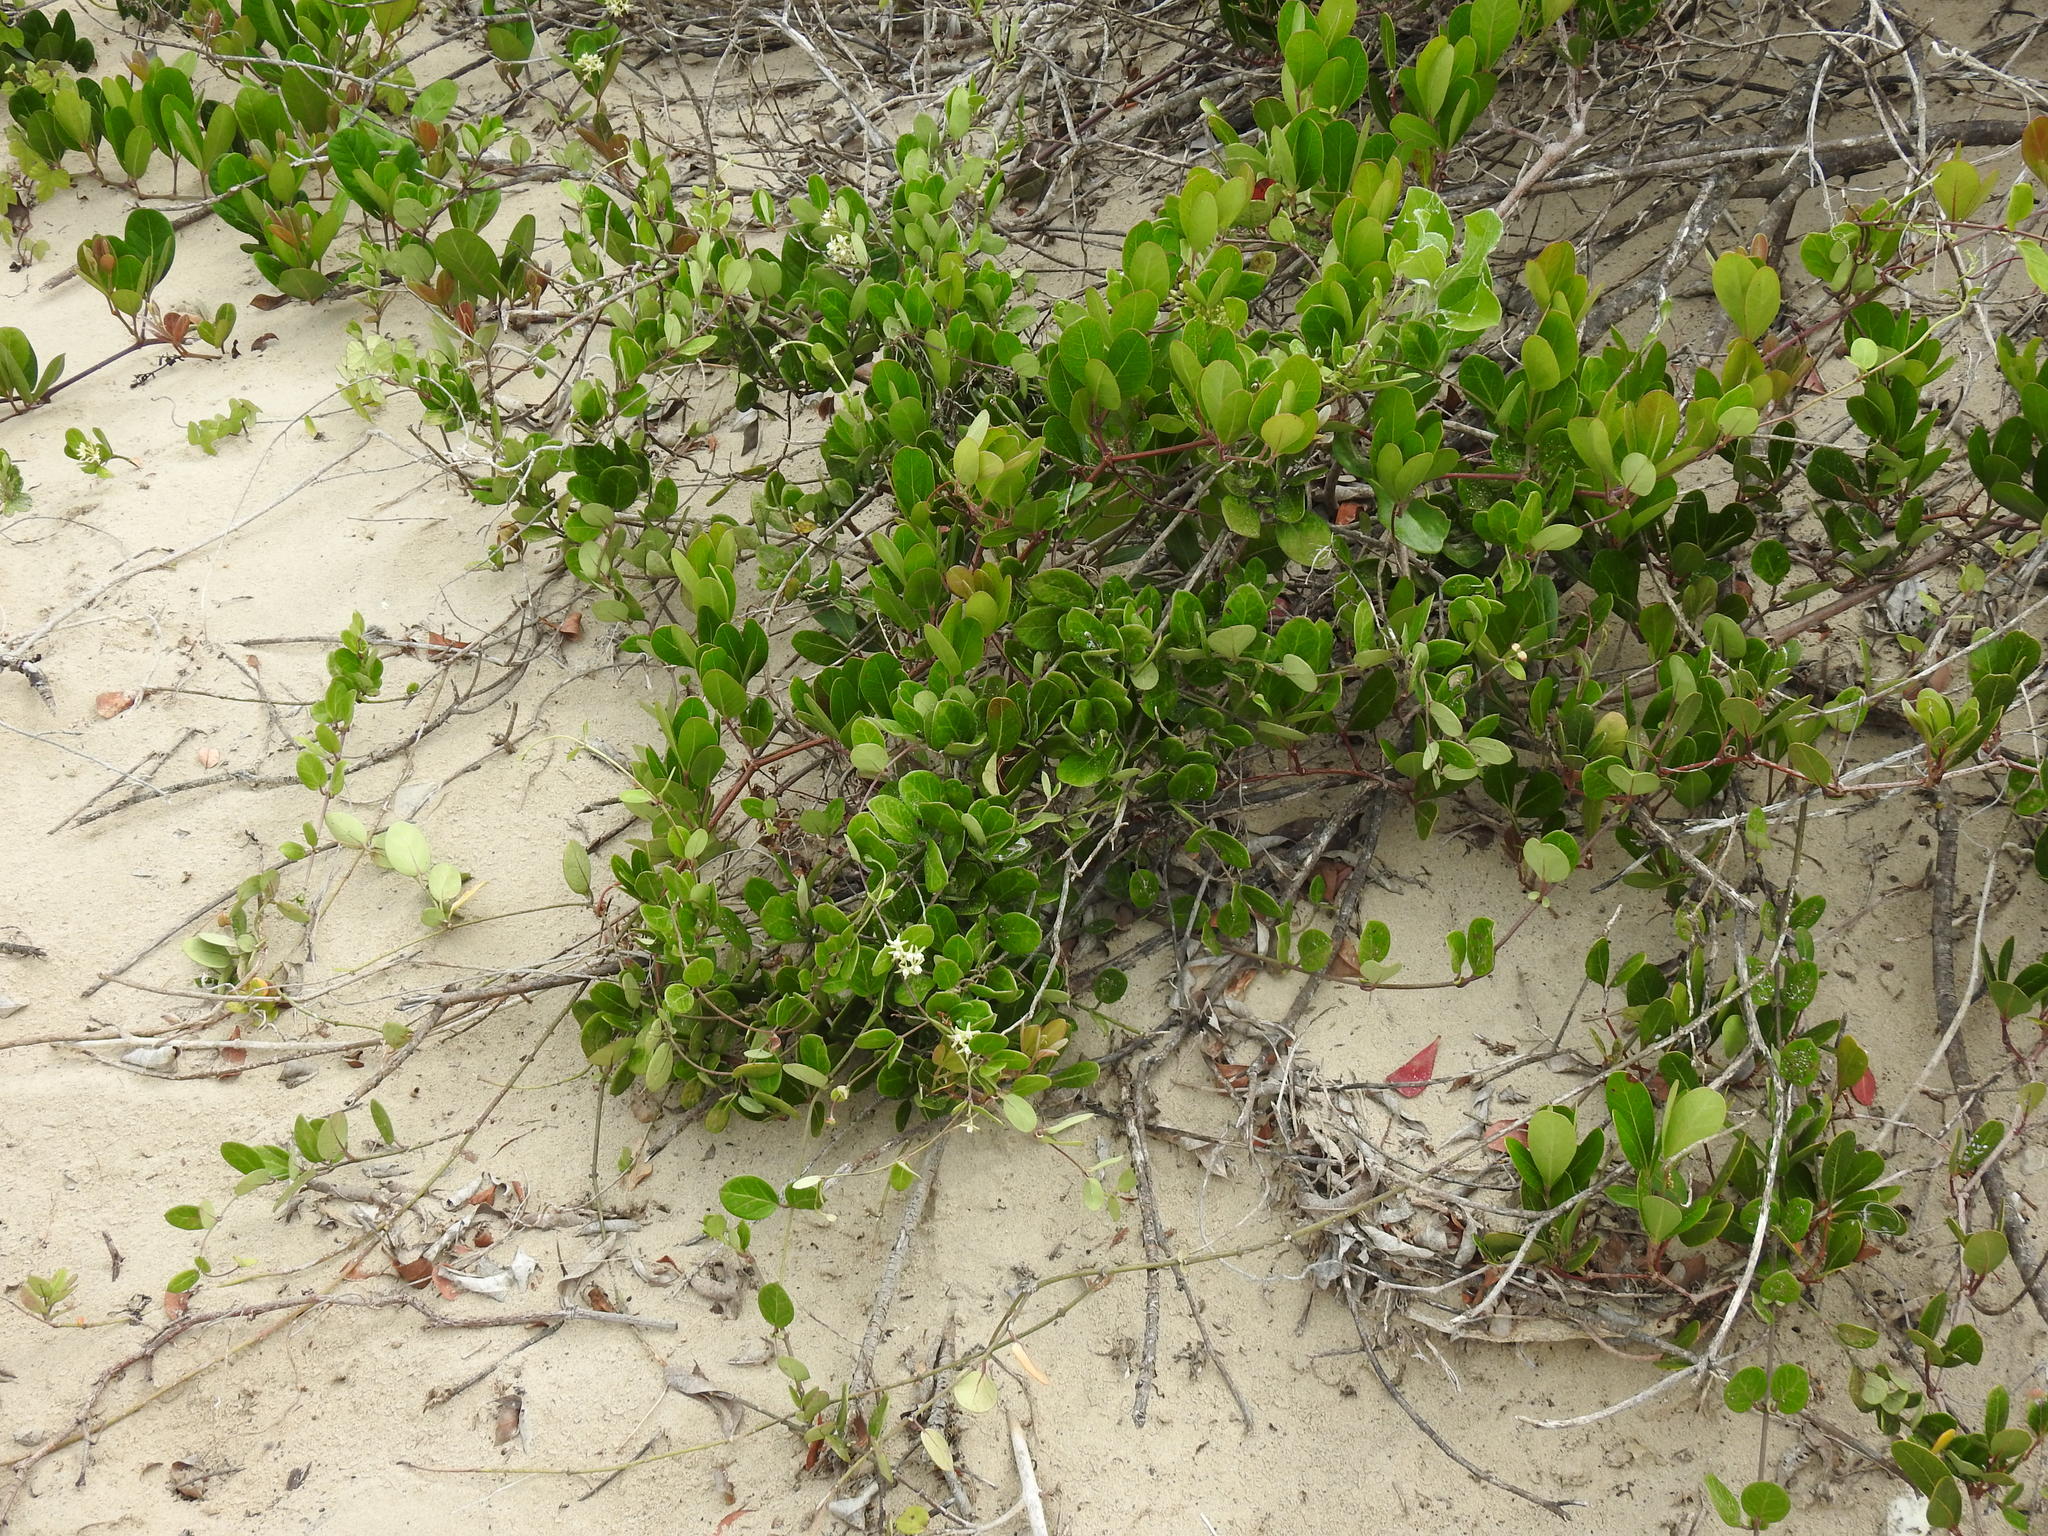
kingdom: Plantae
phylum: Tracheophyta
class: Magnoliopsida
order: Gentianales
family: Apocynaceae
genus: Cynanchum
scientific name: Cynanchum natalitium
